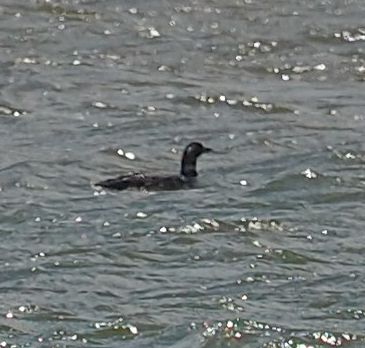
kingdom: Animalia
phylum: Chordata
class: Aves
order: Gaviiformes
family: Gaviidae
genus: Gavia
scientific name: Gavia immer
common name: Common loon
